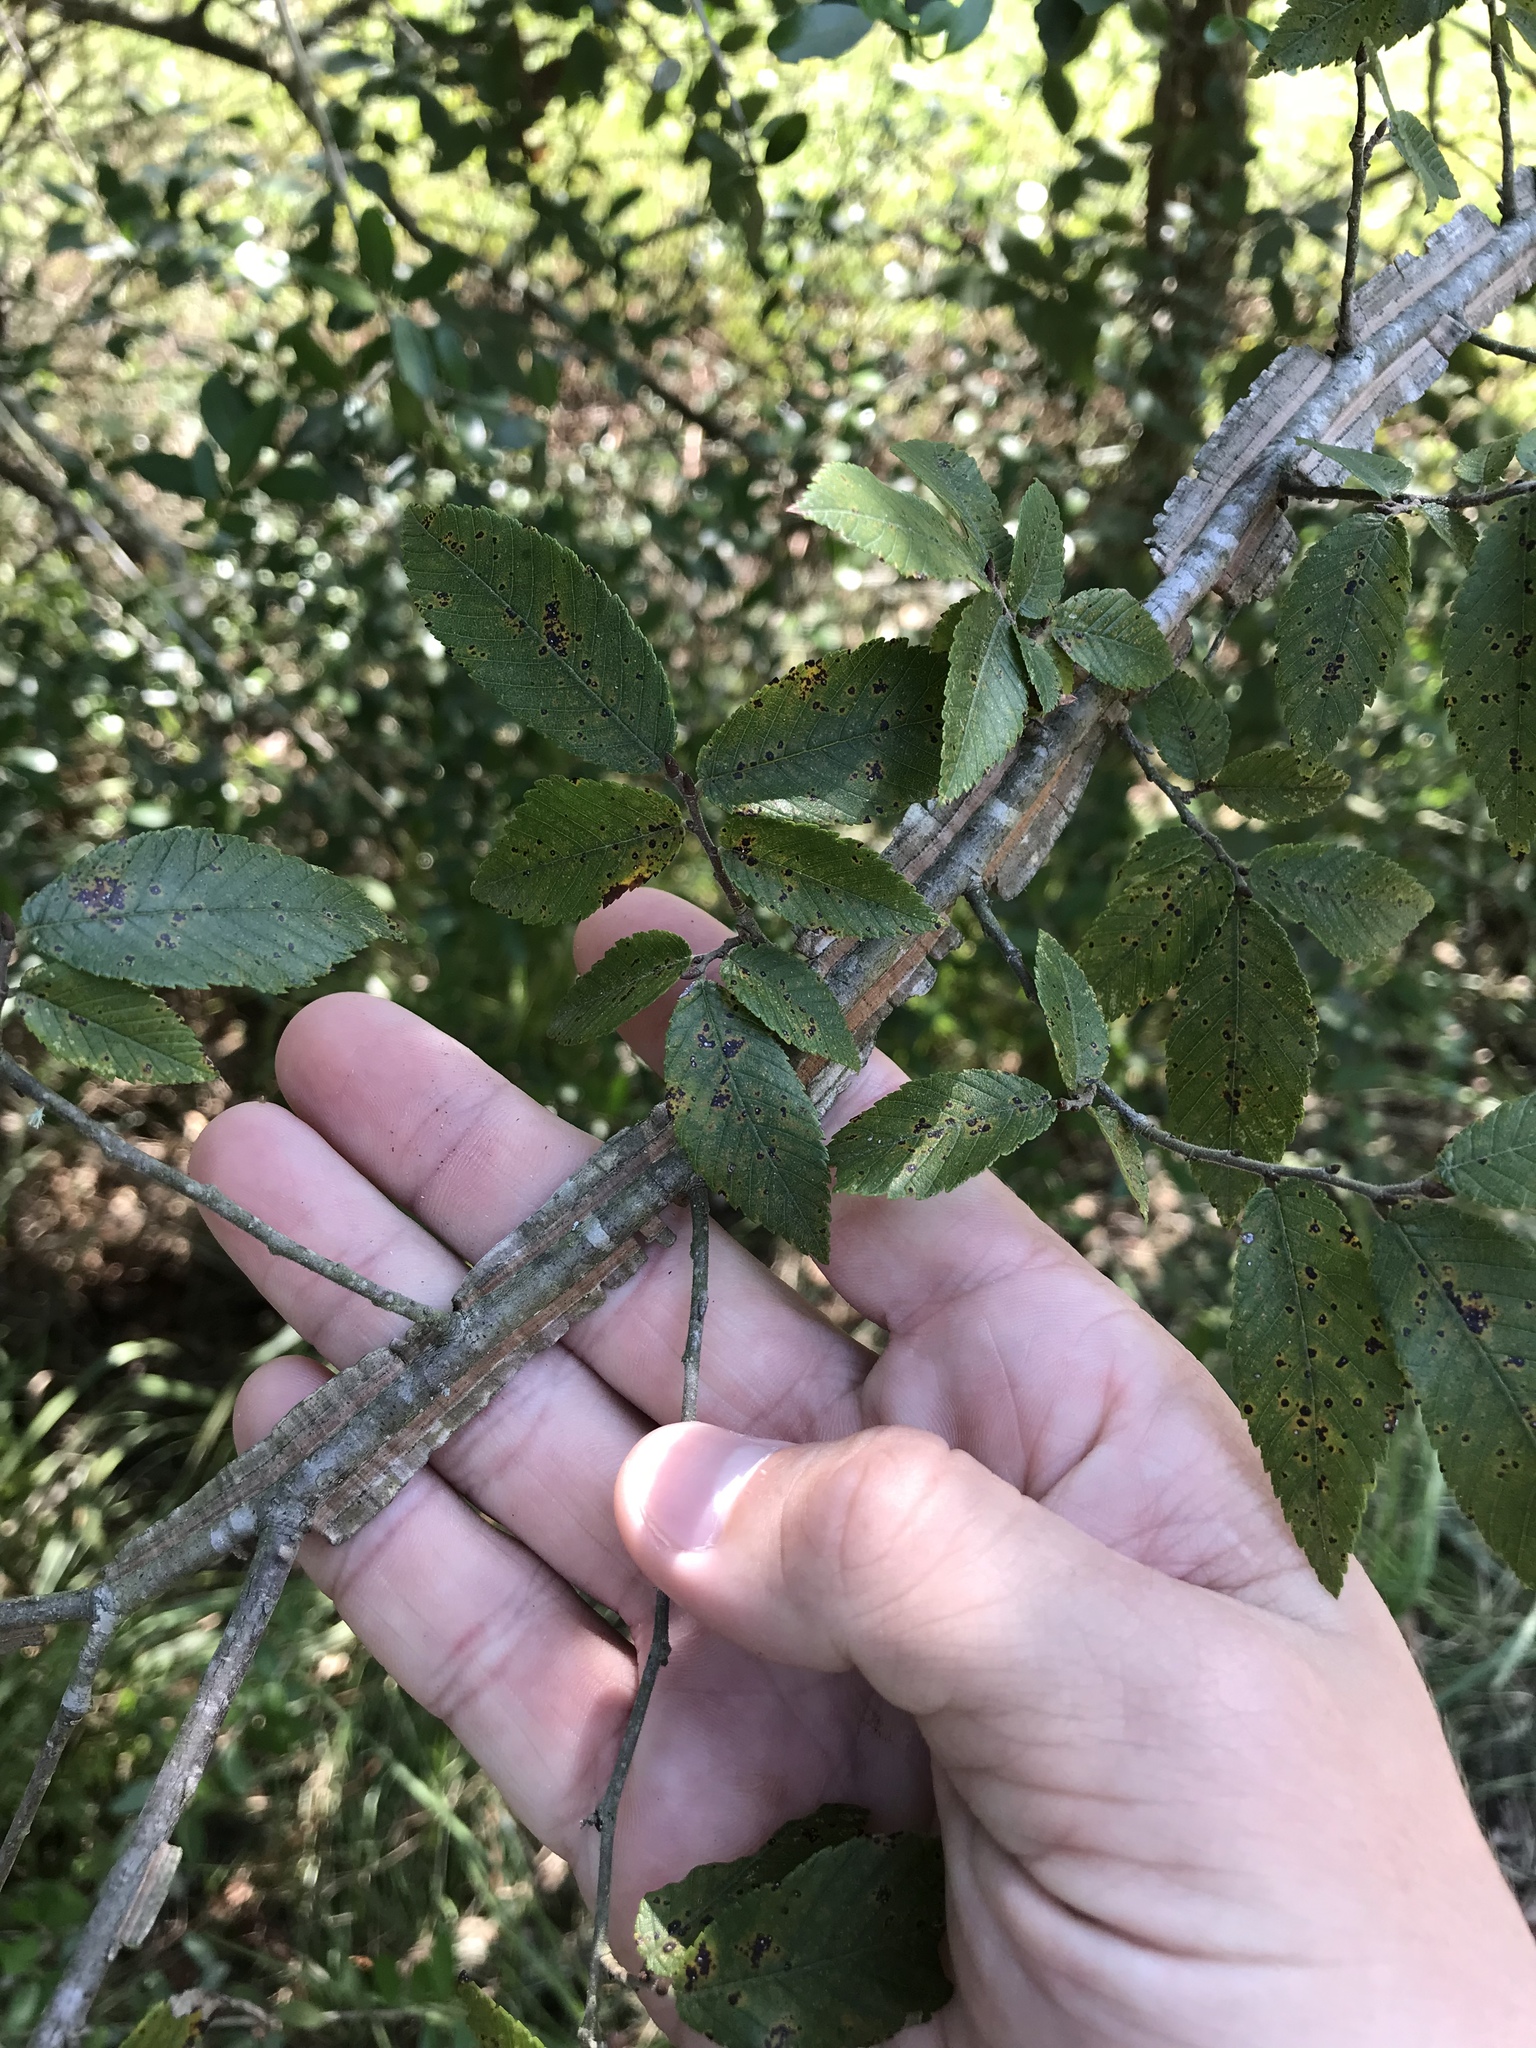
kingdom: Plantae
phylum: Tracheophyta
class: Magnoliopsida
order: Rosales
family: Ulmaceae
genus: Ulmus
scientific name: Ulmus alata
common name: Winged elm
